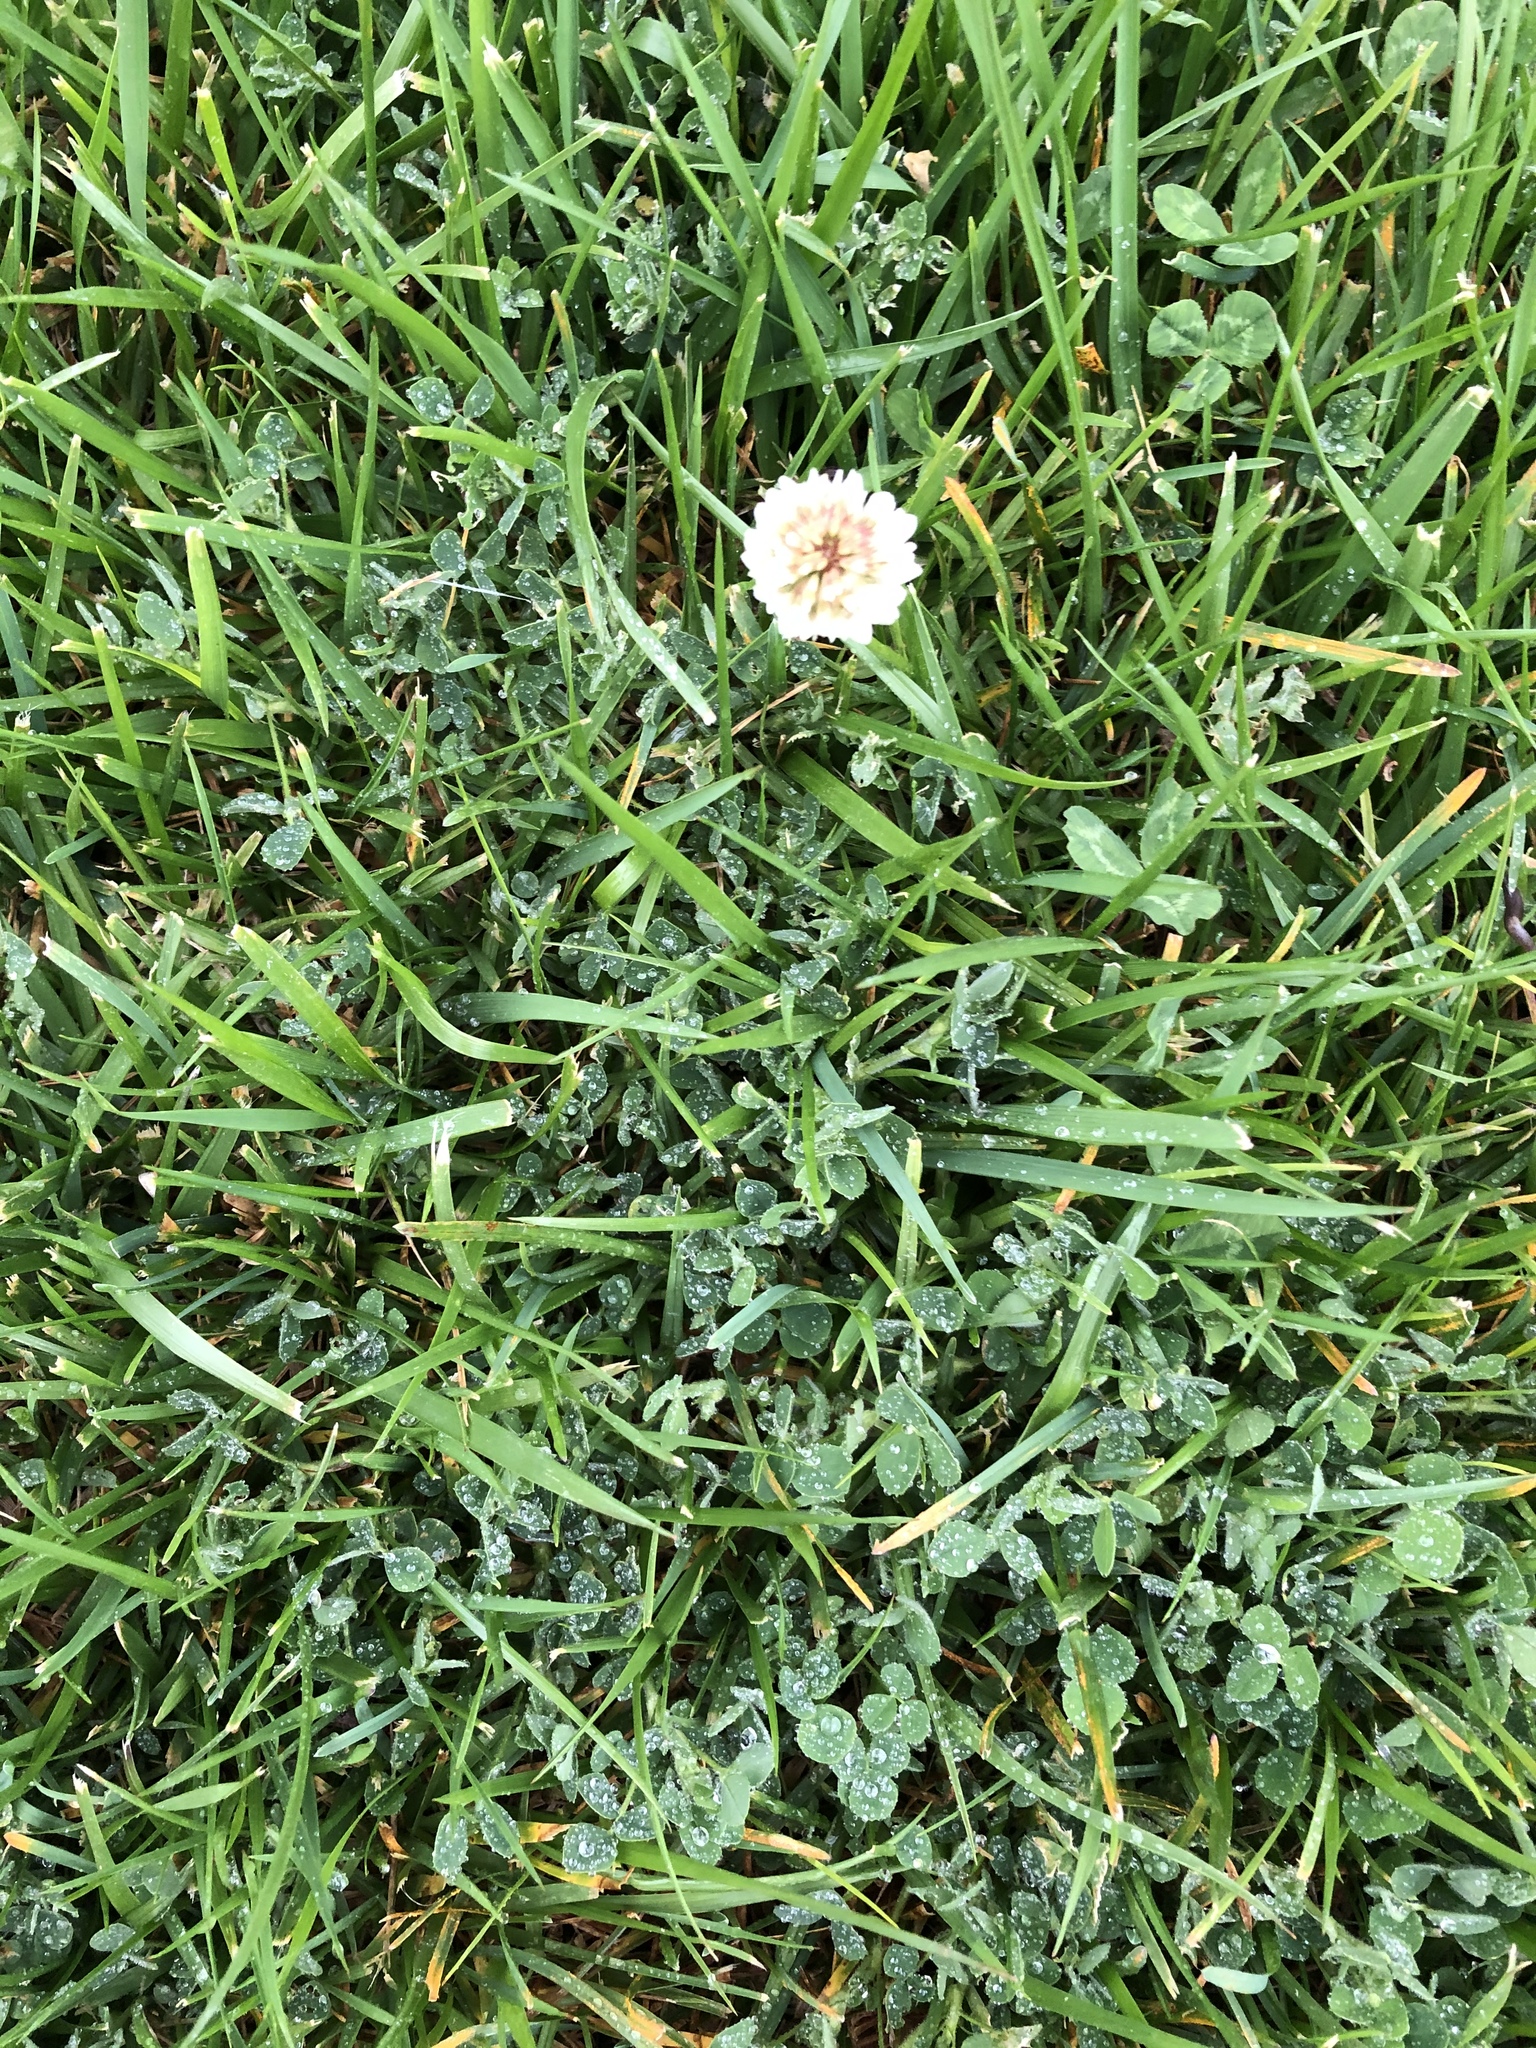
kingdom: Plantae
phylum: Tracheophyta
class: Magnoliopsida
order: Fabales
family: Fabaceae
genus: Trifolium
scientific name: Trifolium repens
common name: White clover
